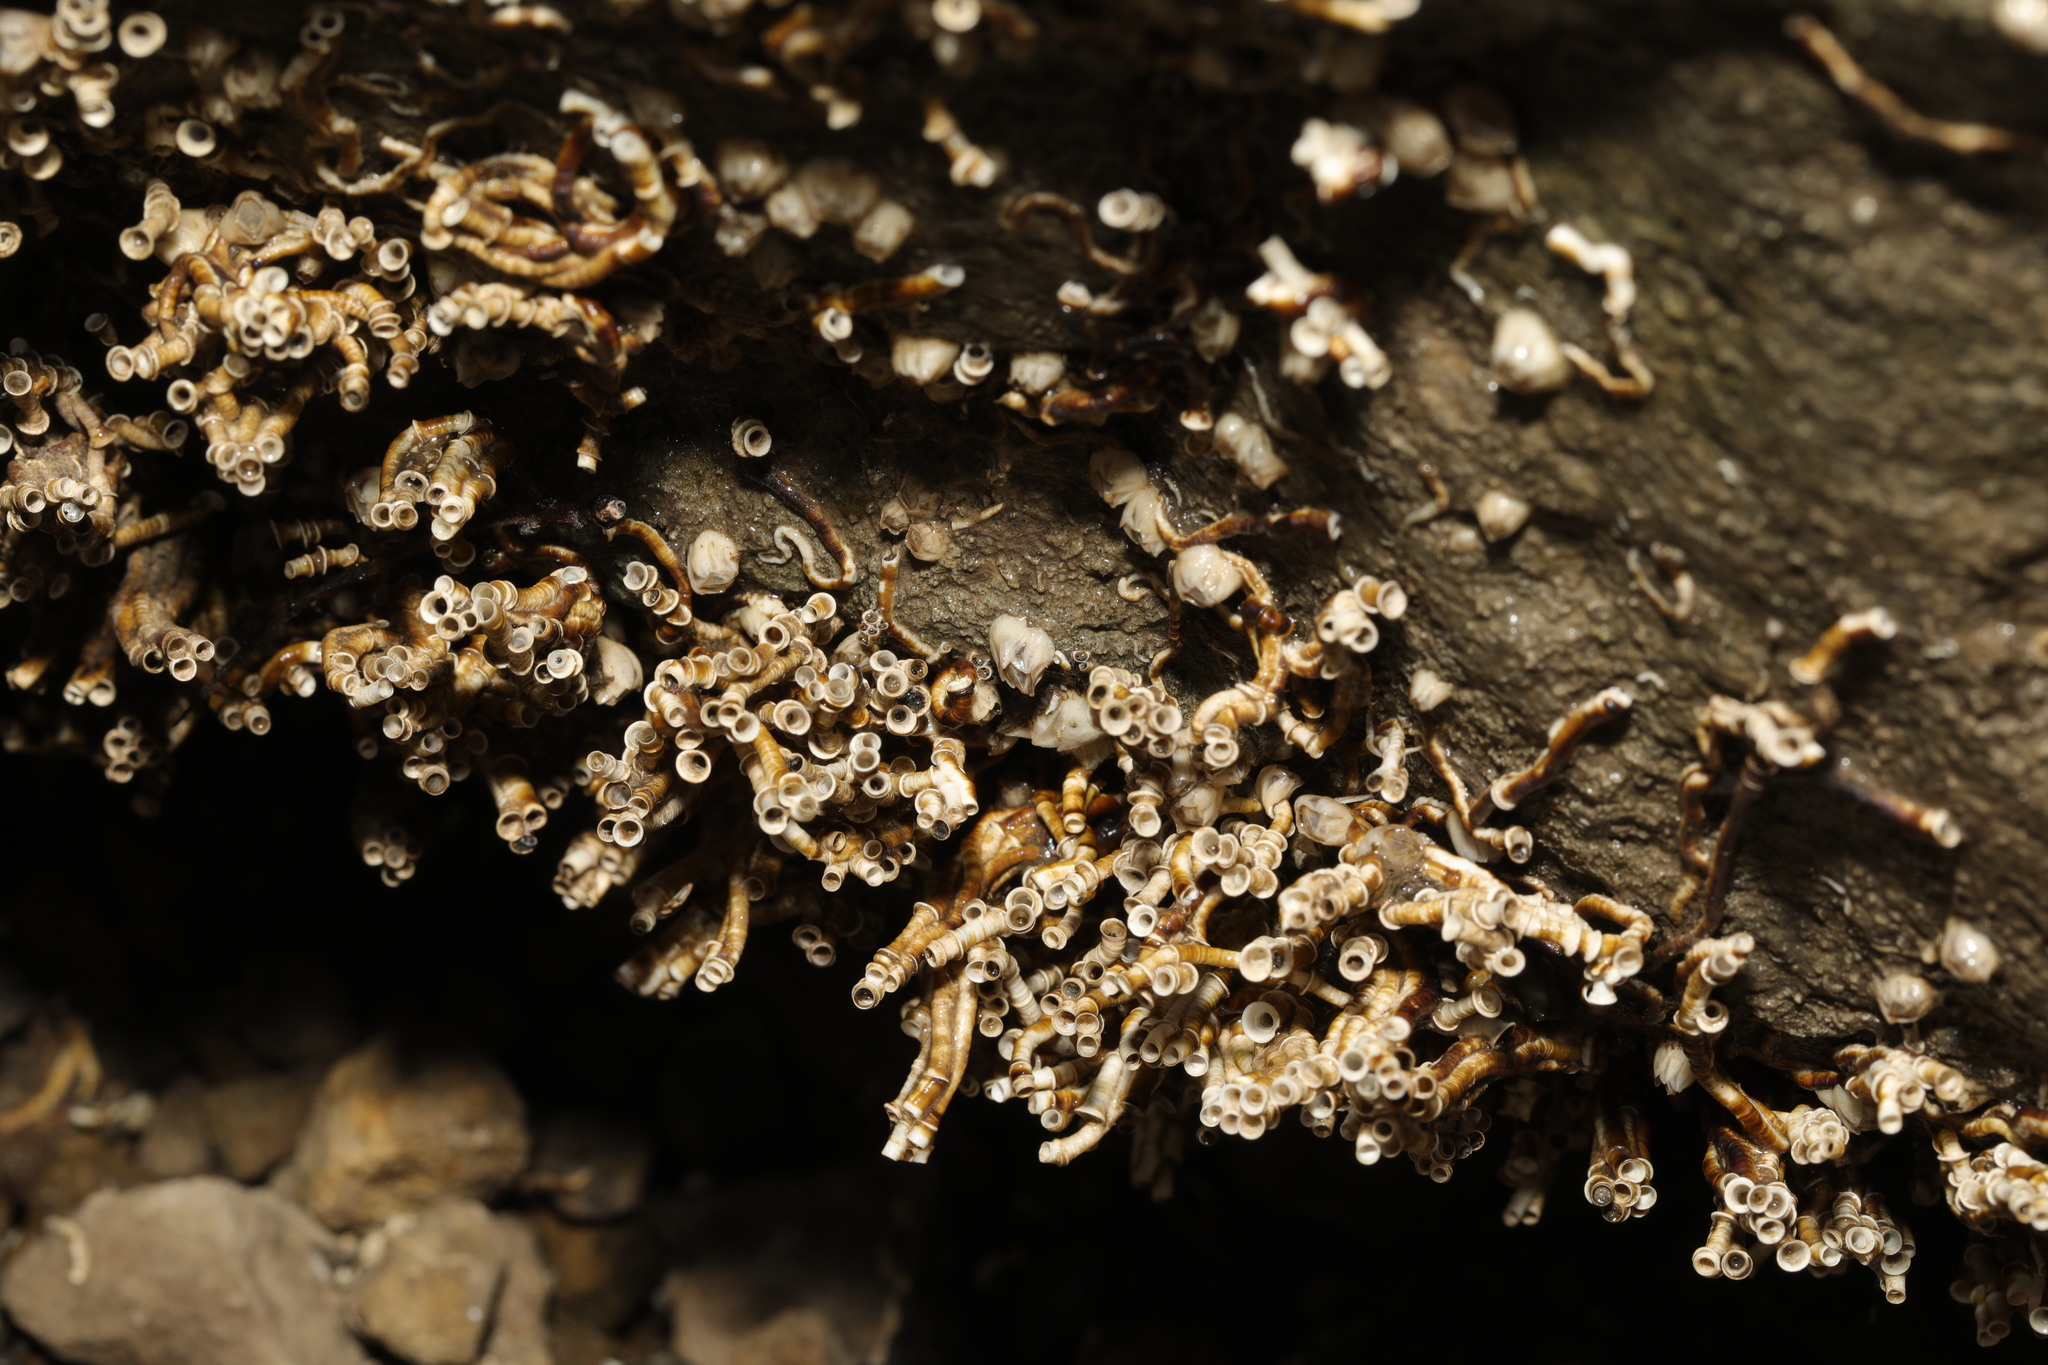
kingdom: Animalia
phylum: Annelida
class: Polychaeta
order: Sabellida
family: Serpulidae
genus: Ficopomatus
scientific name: Ficopomatus enigmaticus
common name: Australian tubeworm
